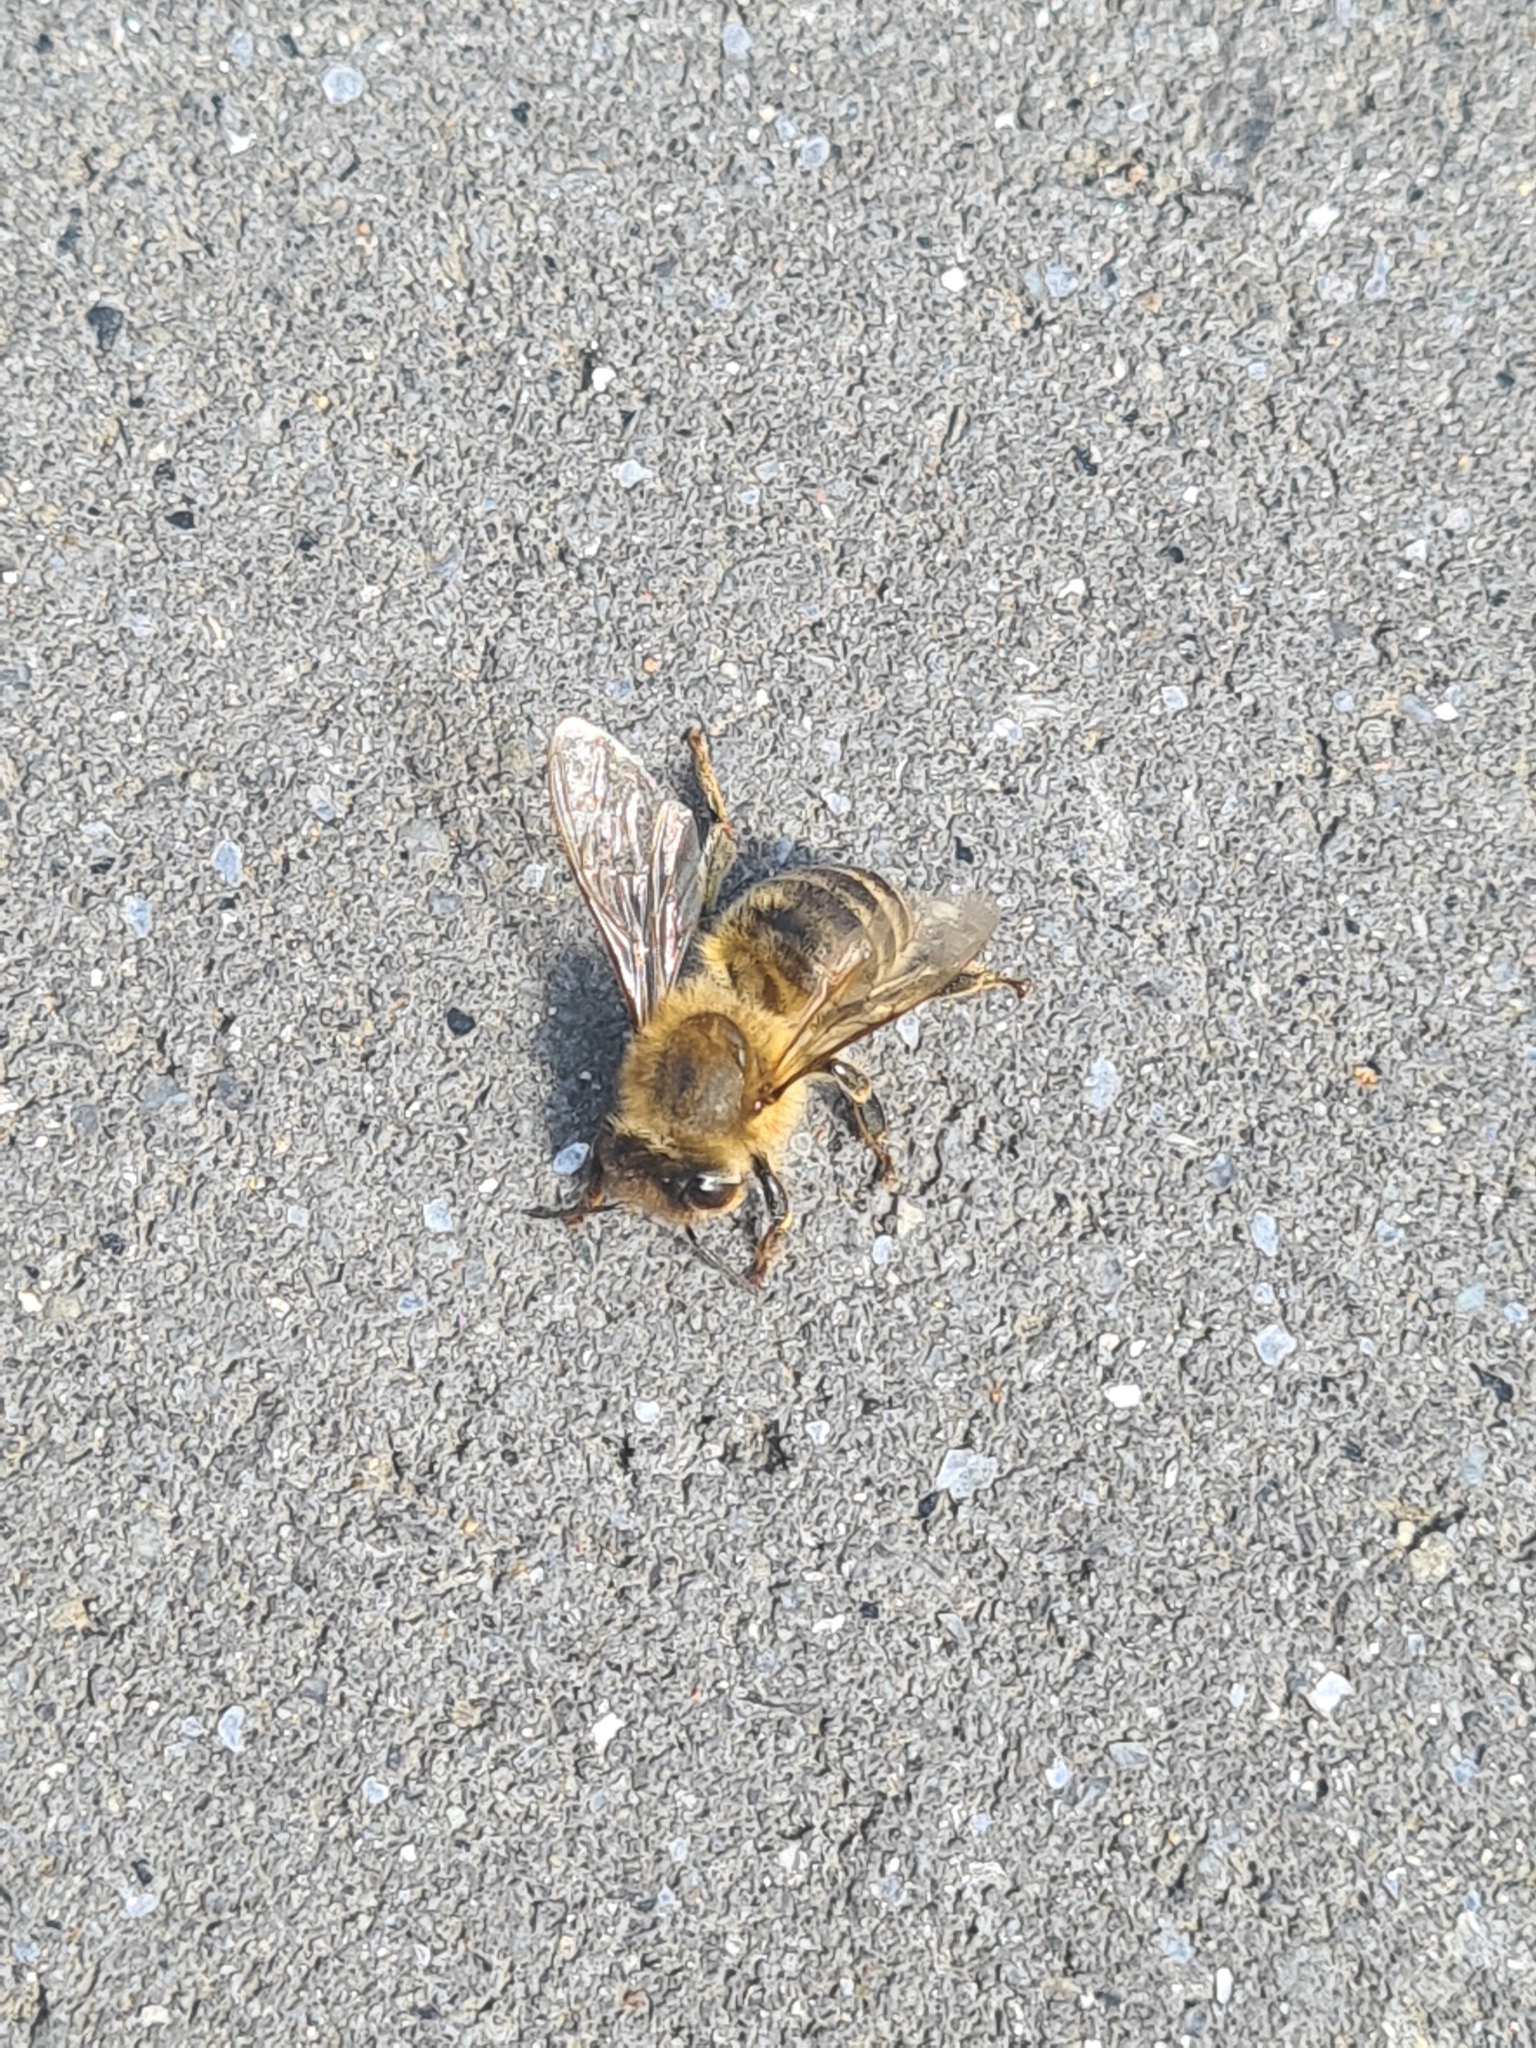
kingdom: Animalia
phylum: Arthropoda
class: Insecta
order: Hymenoptera
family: Apidae
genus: Apis
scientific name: Apis mellifera
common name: Honey bee
